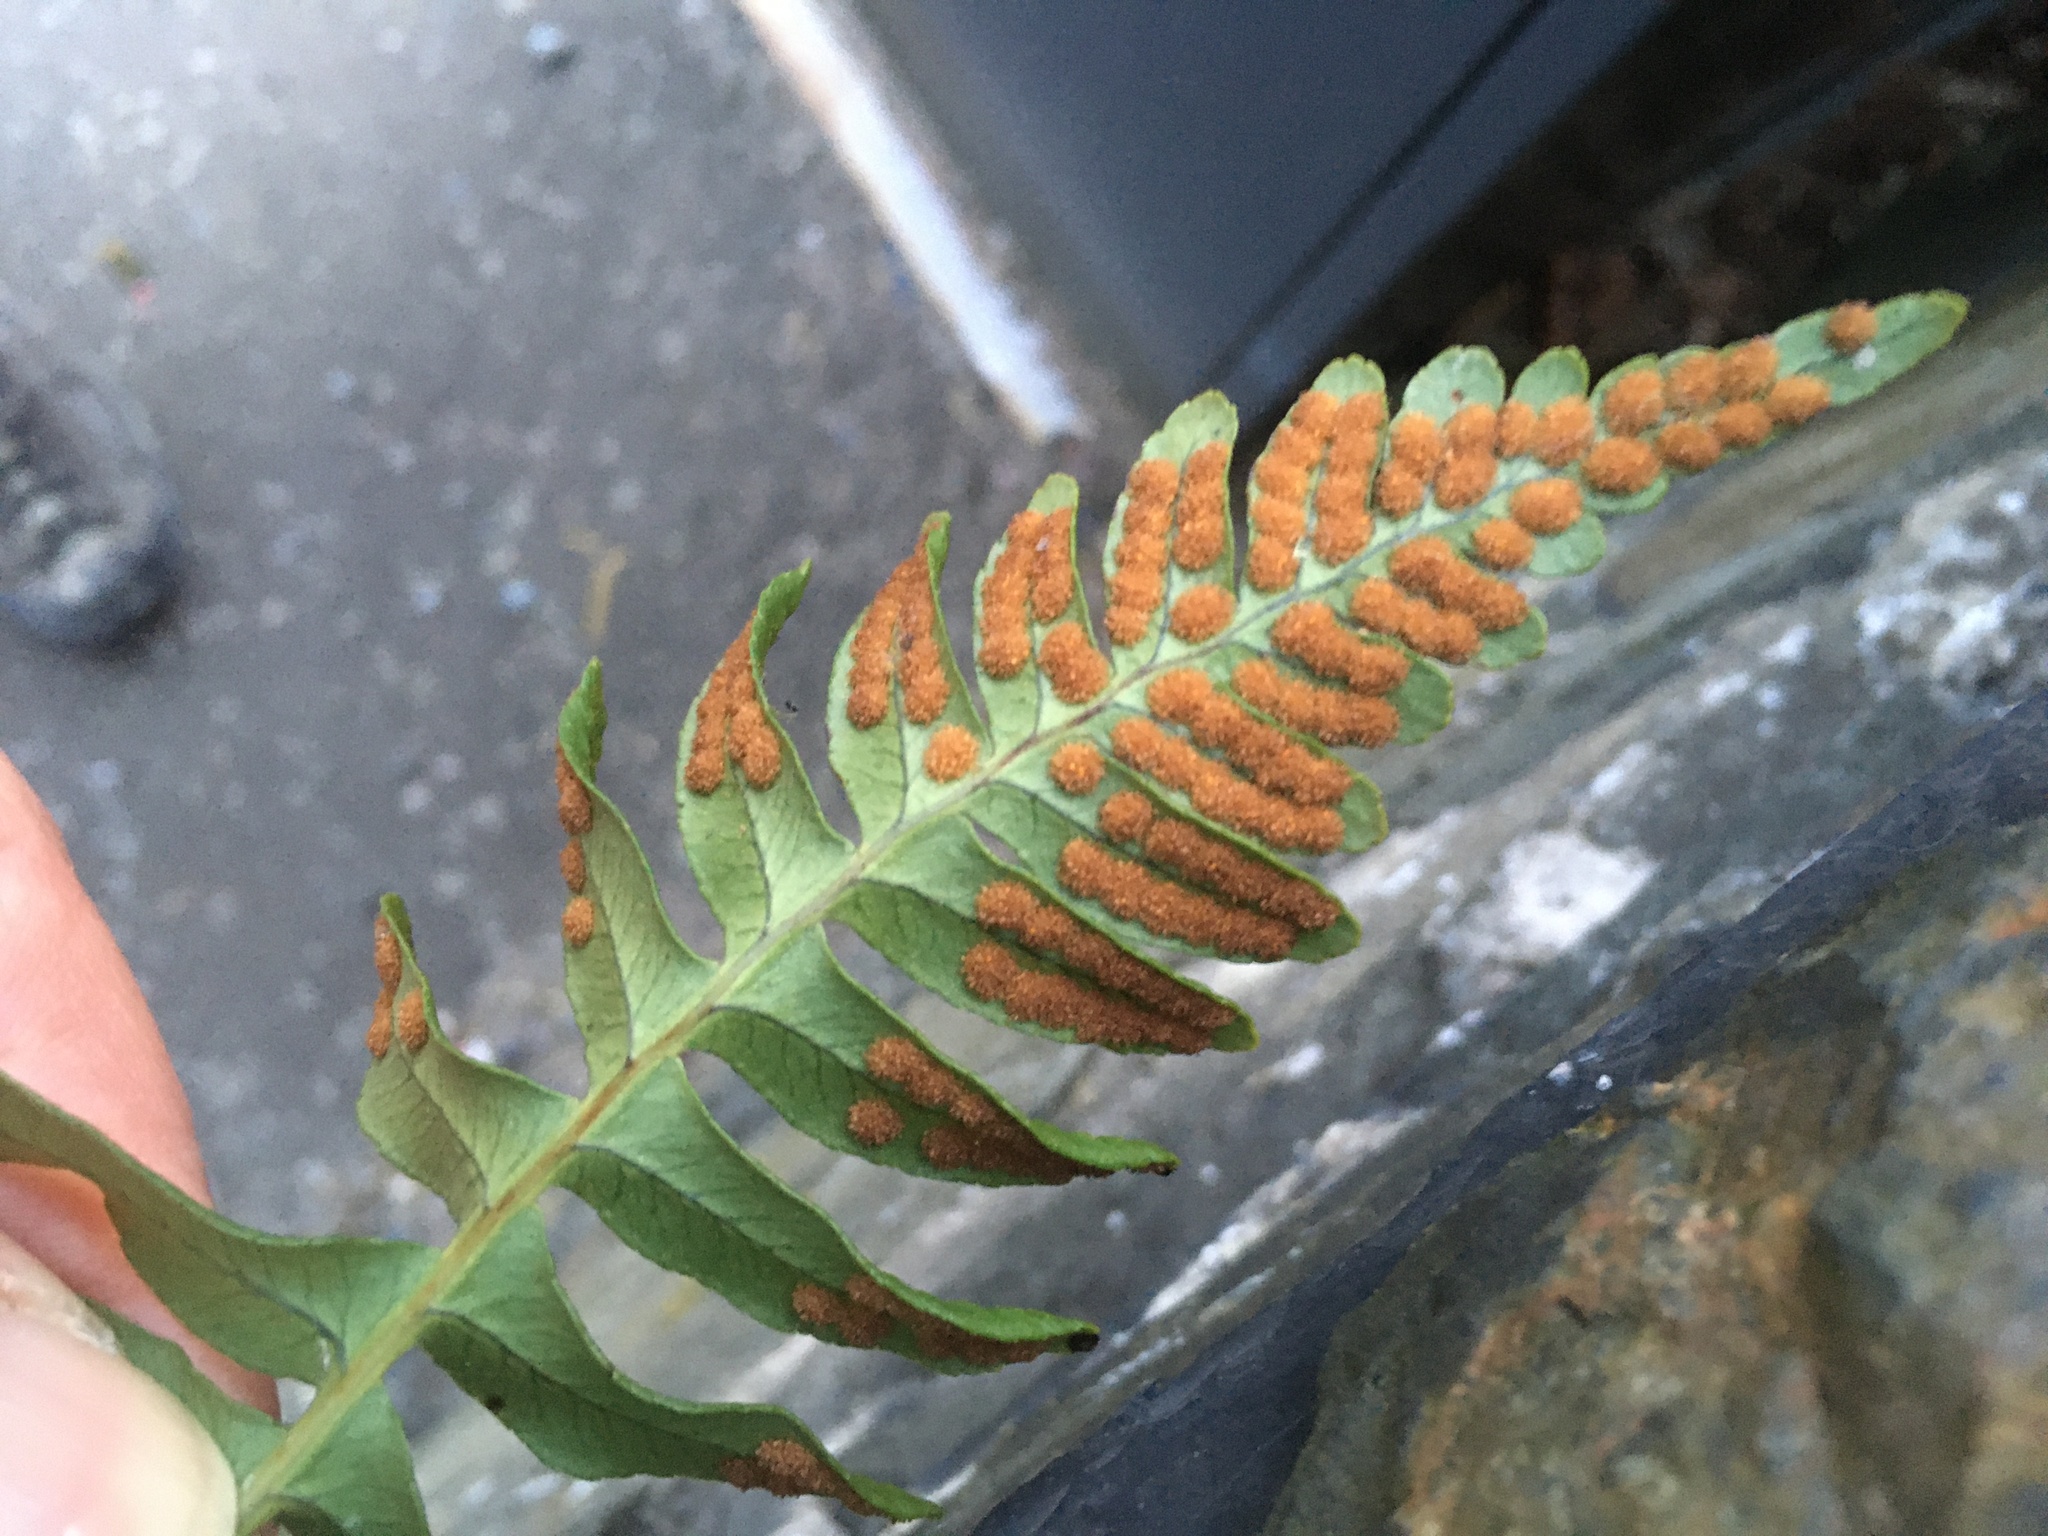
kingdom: Plantae
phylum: Tracheophyta
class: Polypodiopsida
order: Polypodiales
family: Polypodiaceae
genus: Polypodium
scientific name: Polypodium vulgare
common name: Common polypody
